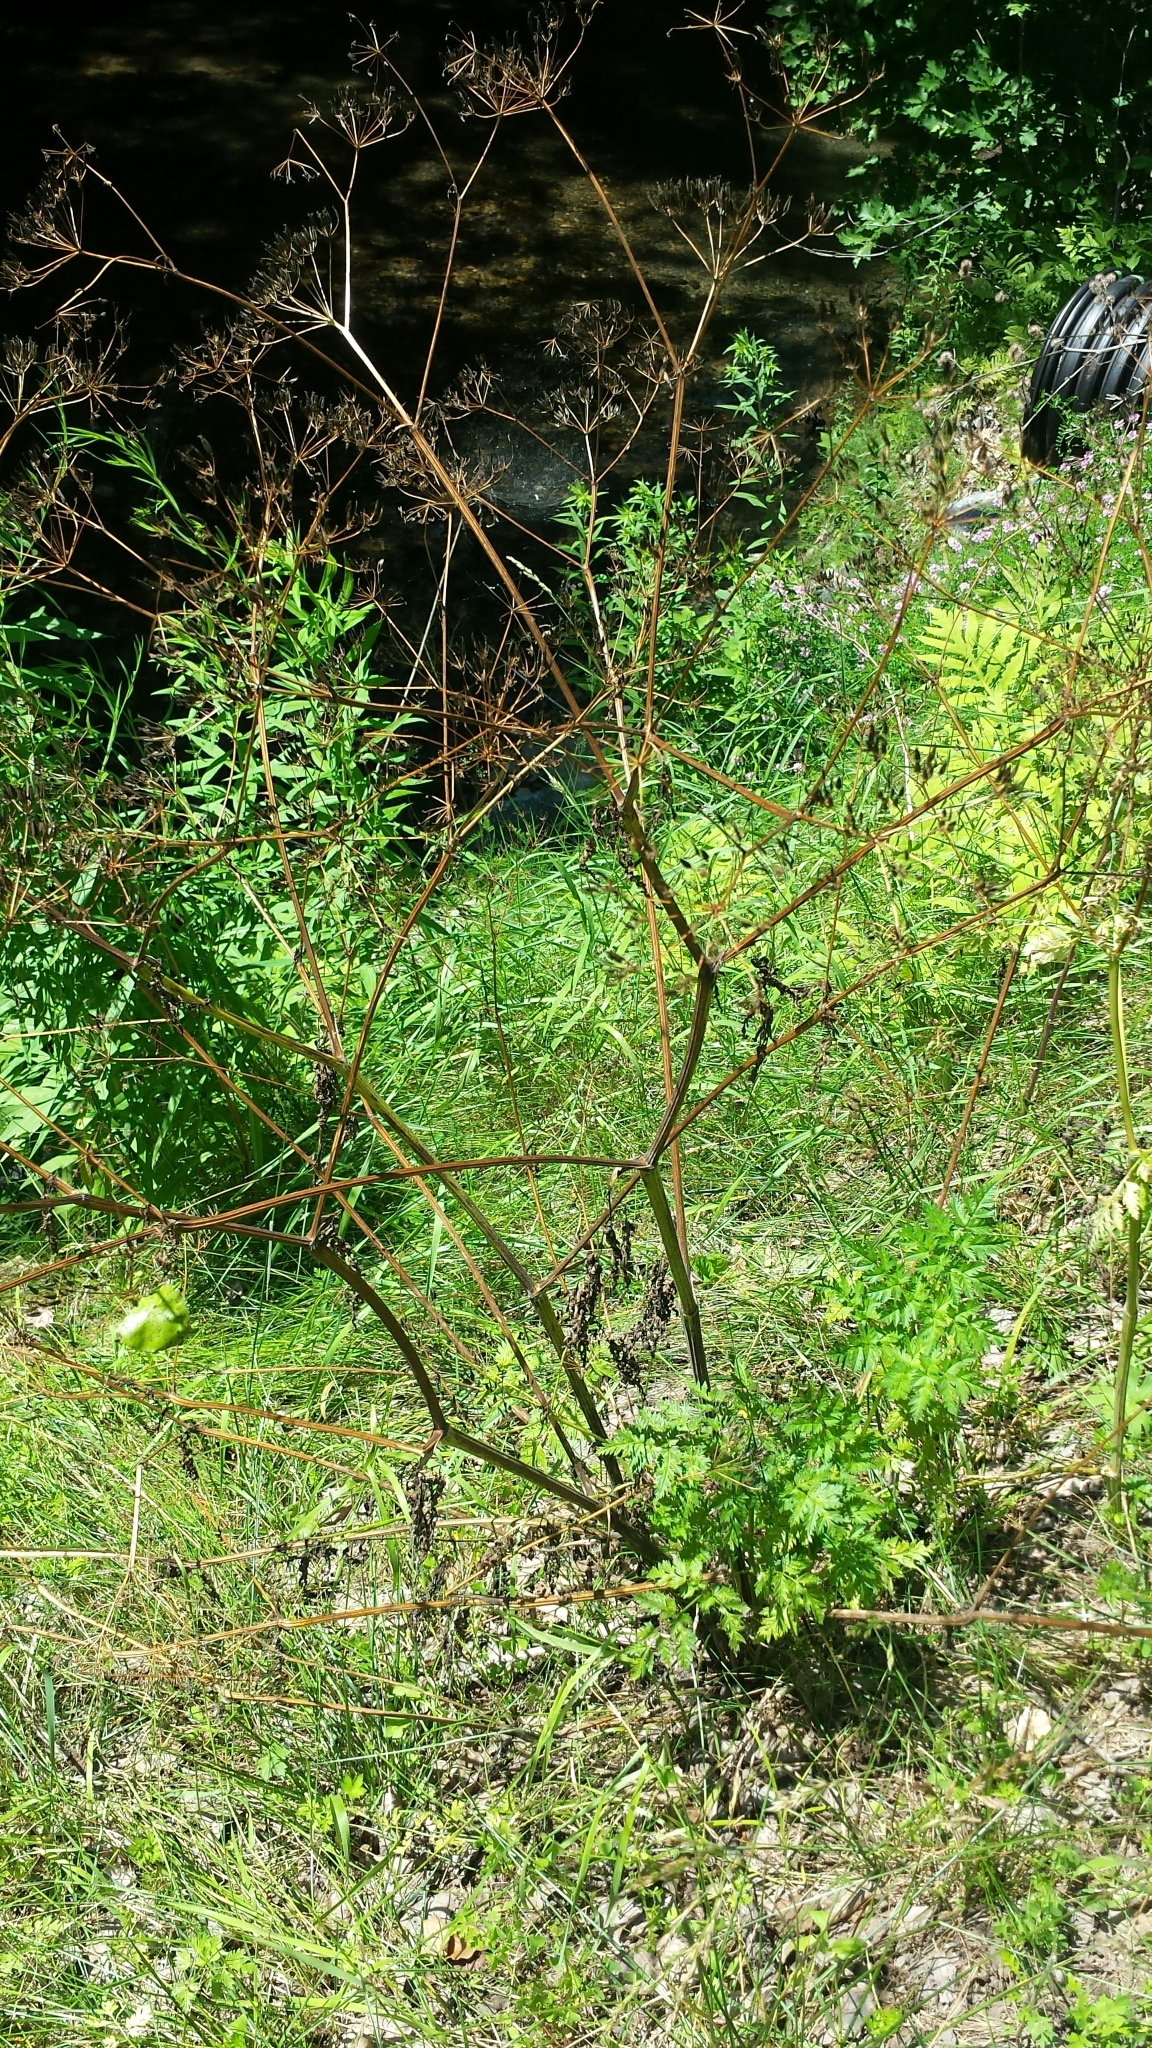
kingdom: Plantae
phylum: Tracheophyta
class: Magnoliopsida
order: Apiales
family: Apiaceae
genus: Anthriscus
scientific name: Anthriscus sylvestris
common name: Cow parsley
